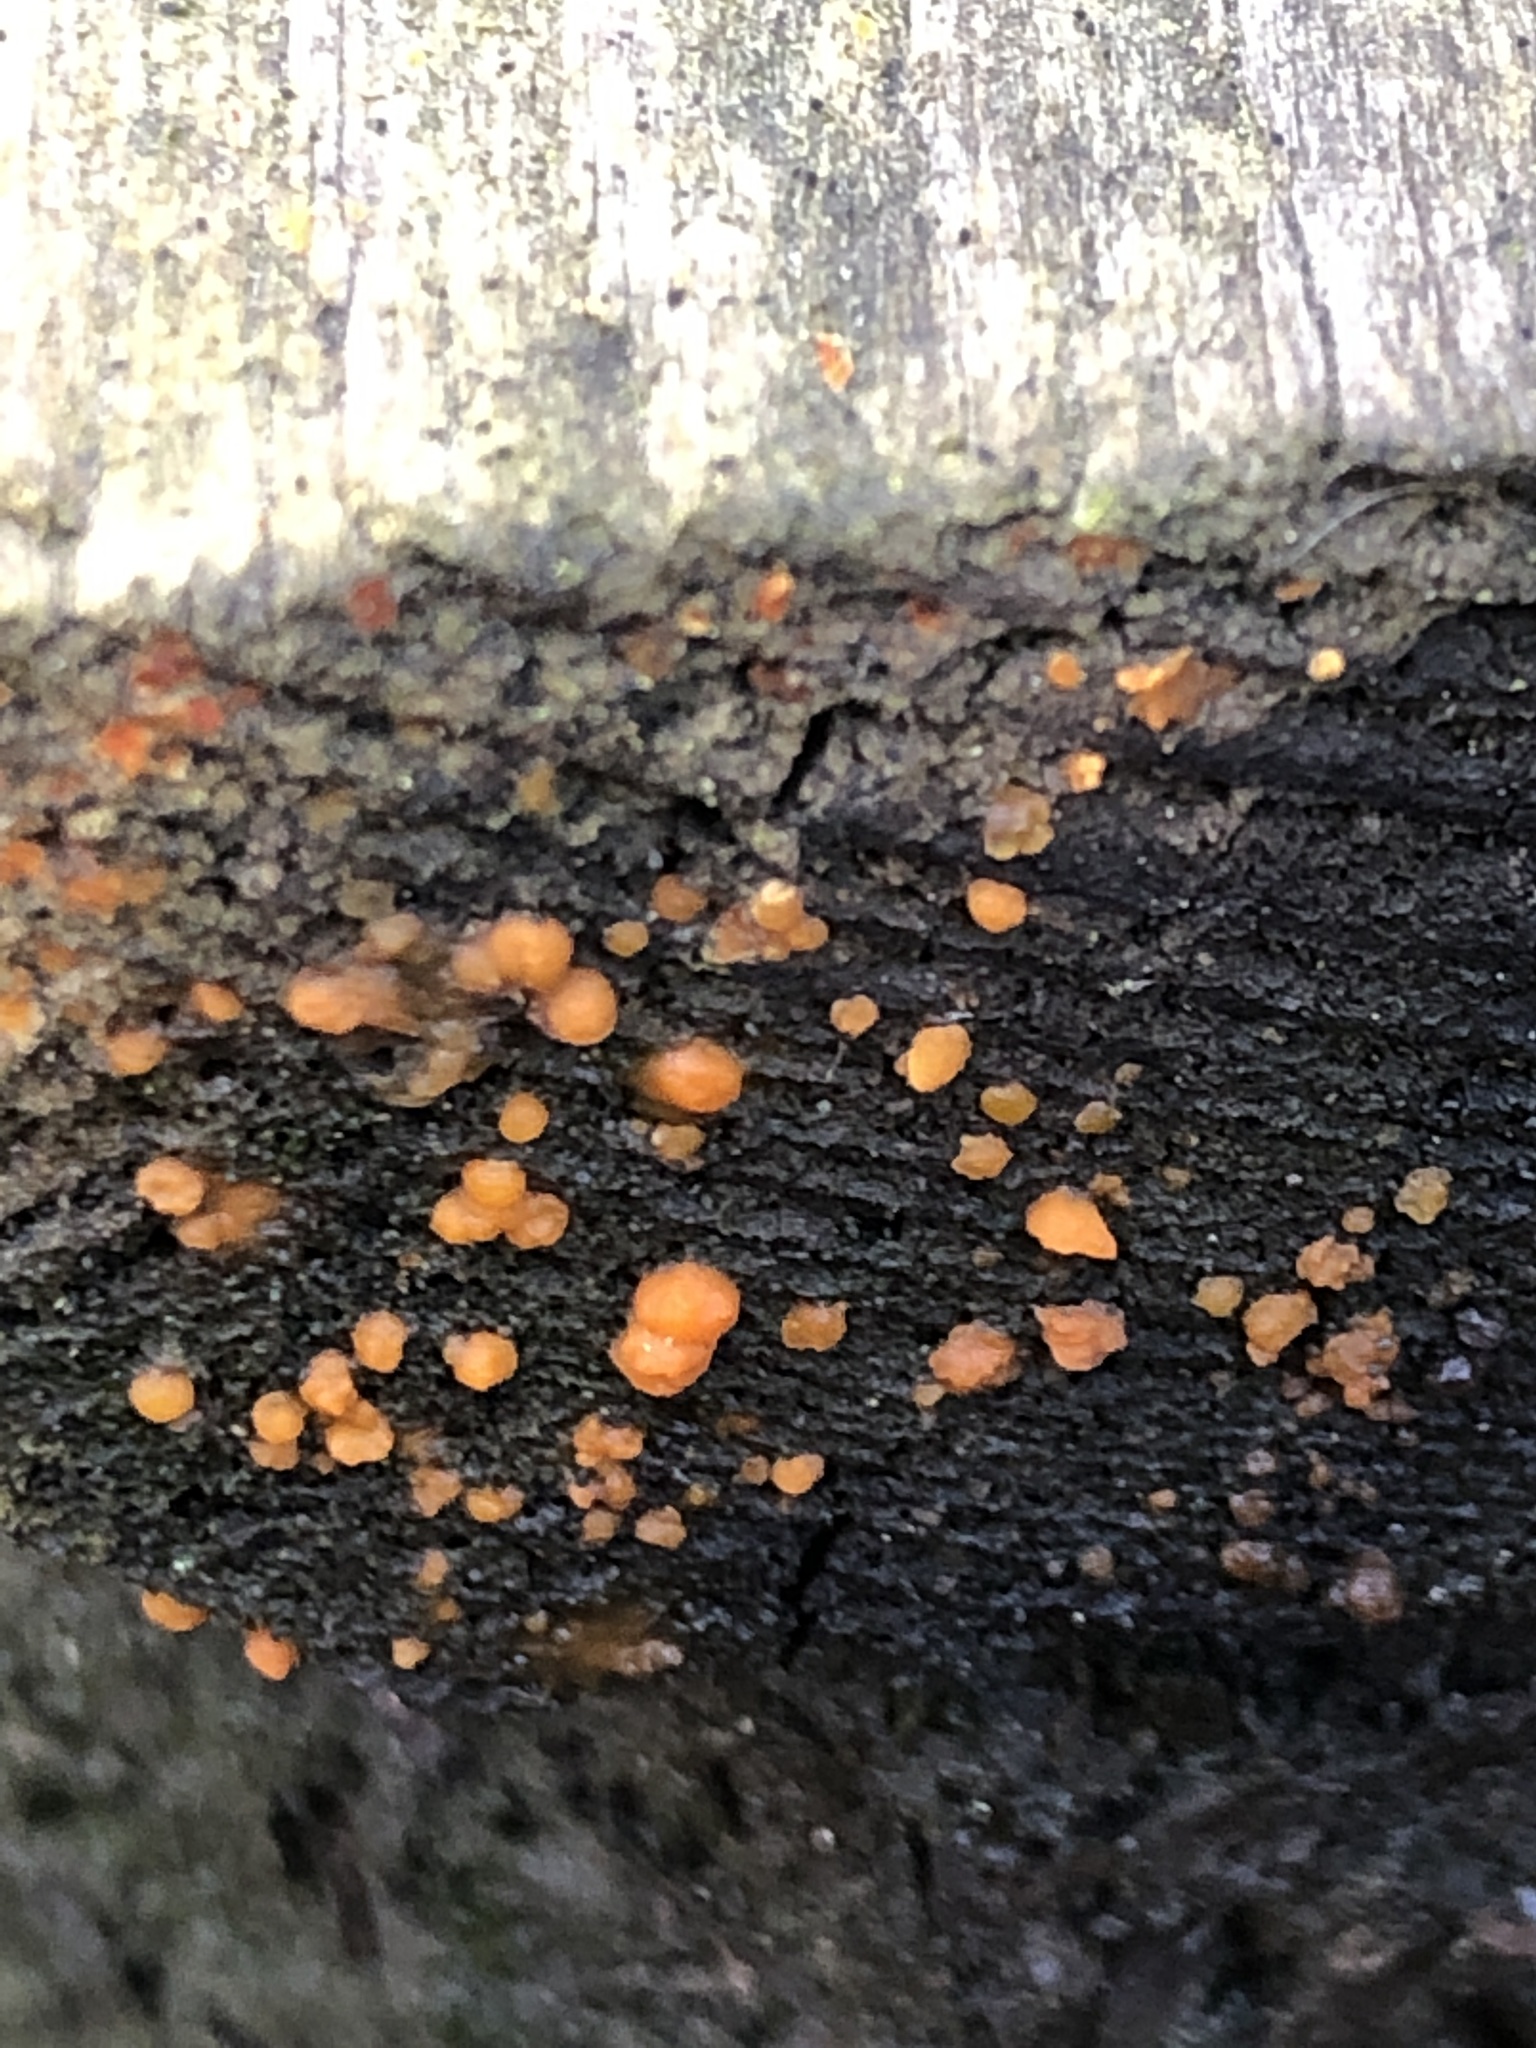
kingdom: Fungi
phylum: Basidiomycota
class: Dacrymycetes
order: Dacrymycetales
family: Dacrymycetaceae
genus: Dacrymyces
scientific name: Dacrymyces stillatus
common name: Common jelly spot
